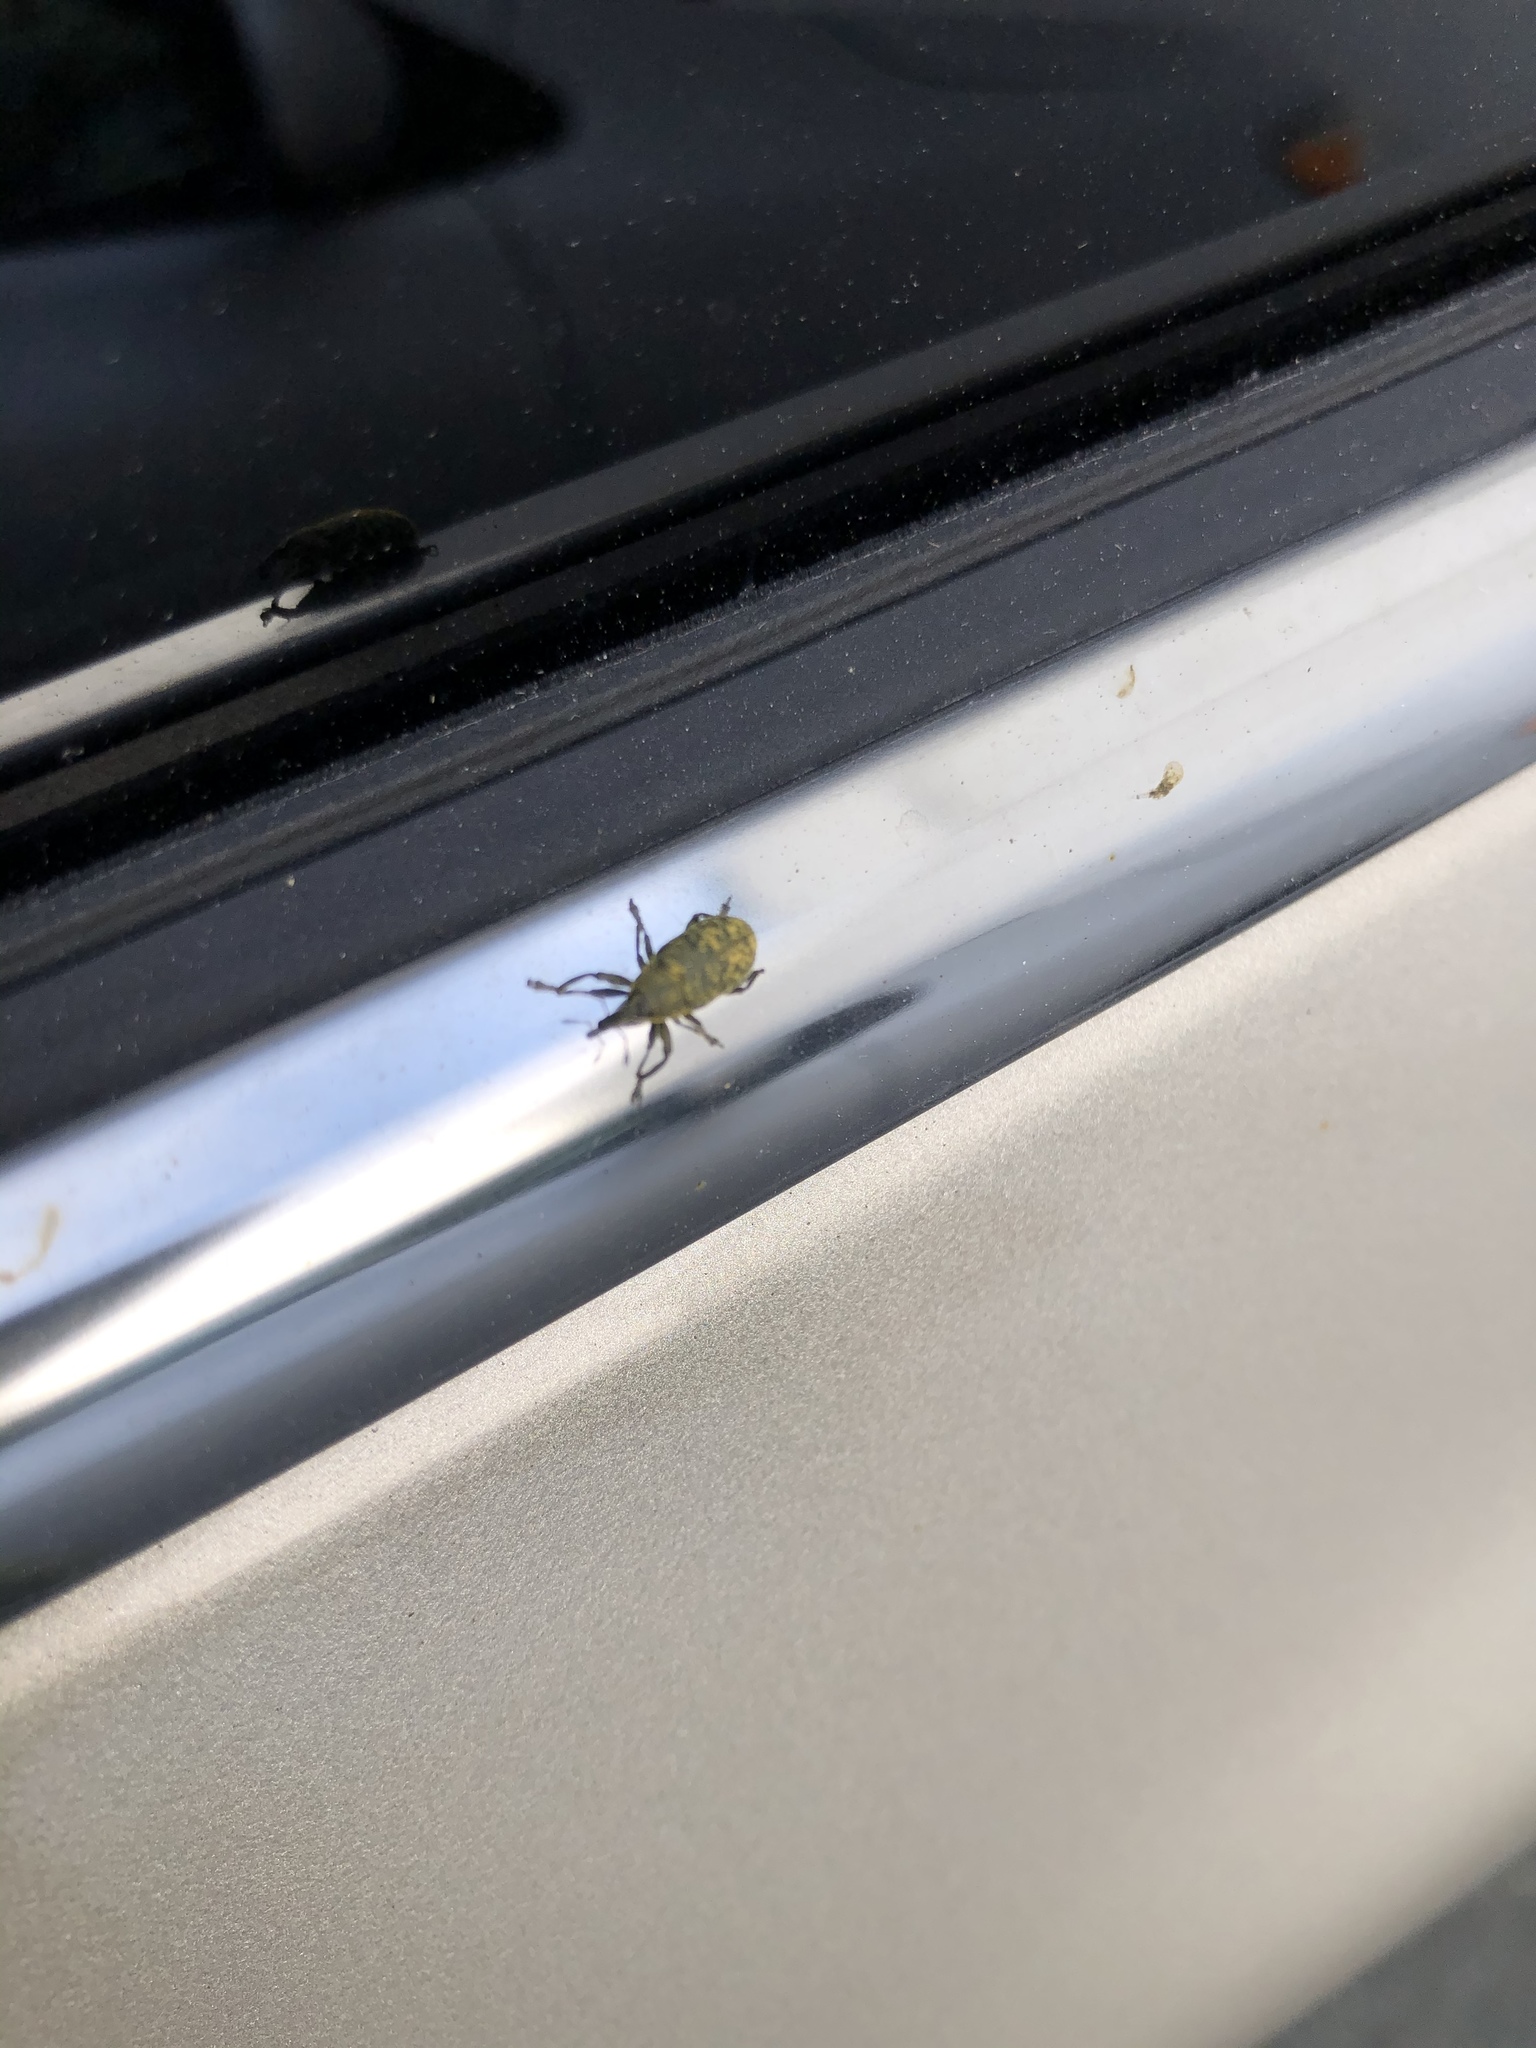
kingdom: Animalia
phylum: Arthropoda
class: Insecta
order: Coleoptera
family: Curculionidae
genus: Larinus
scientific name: Larinus carlinae
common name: Weevil
